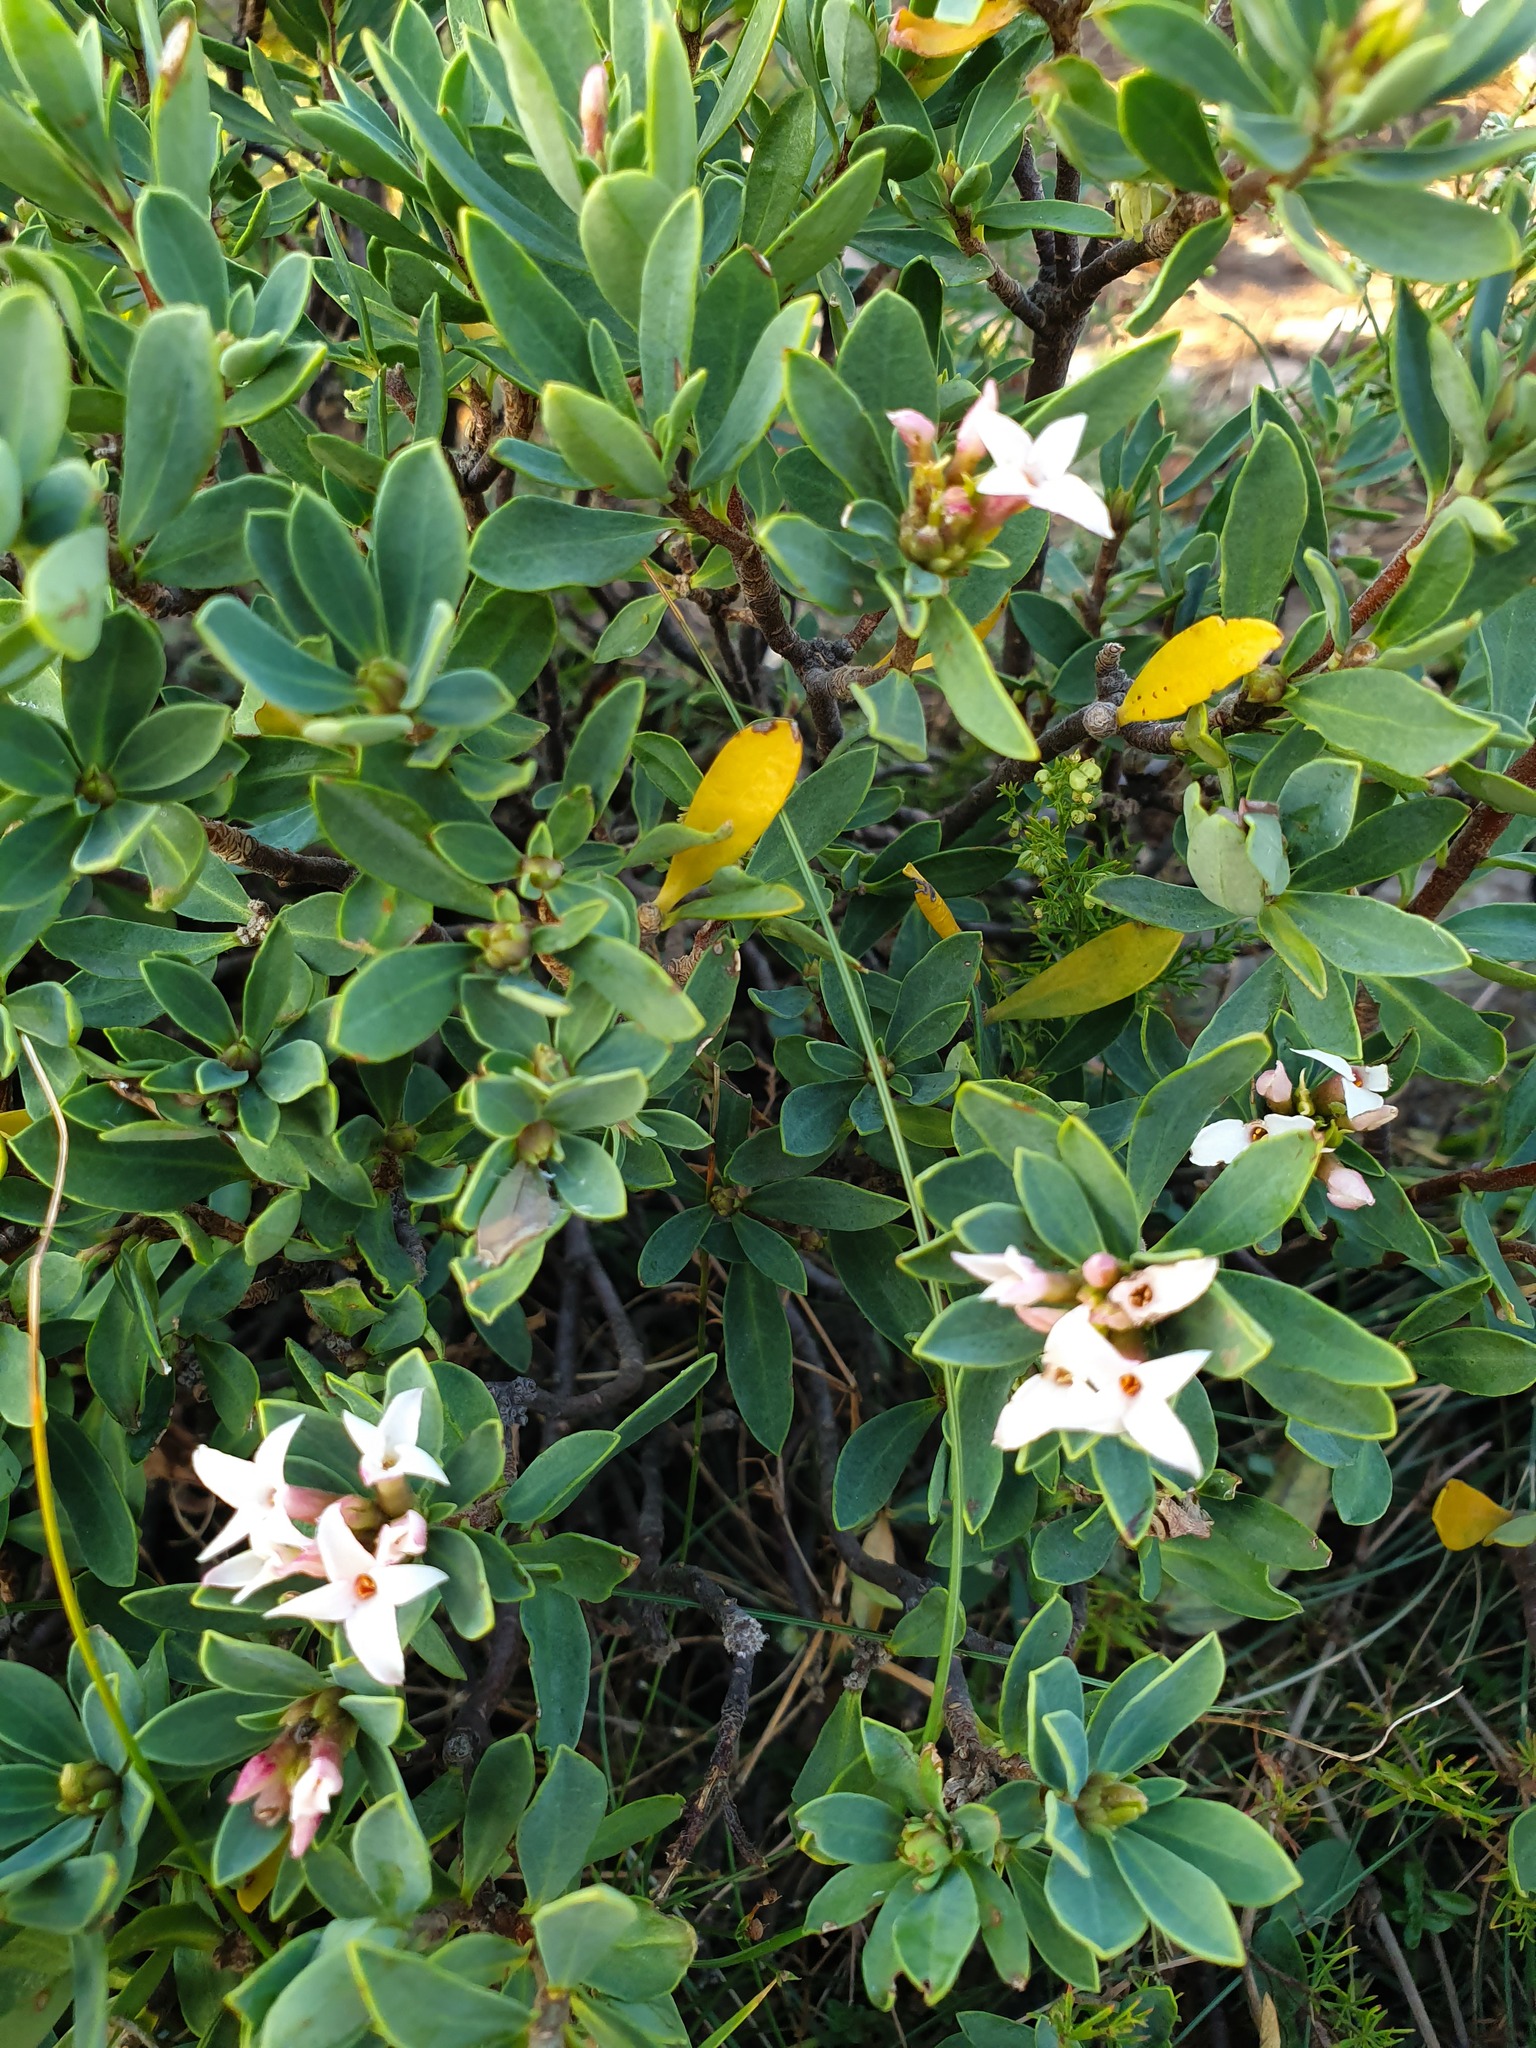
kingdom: Plantae
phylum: Tracheophyta
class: Magnoliopsida
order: Malvales
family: Thymelaeaceae
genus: Daphne
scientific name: Daphne oleoides
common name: Spurge-olive
